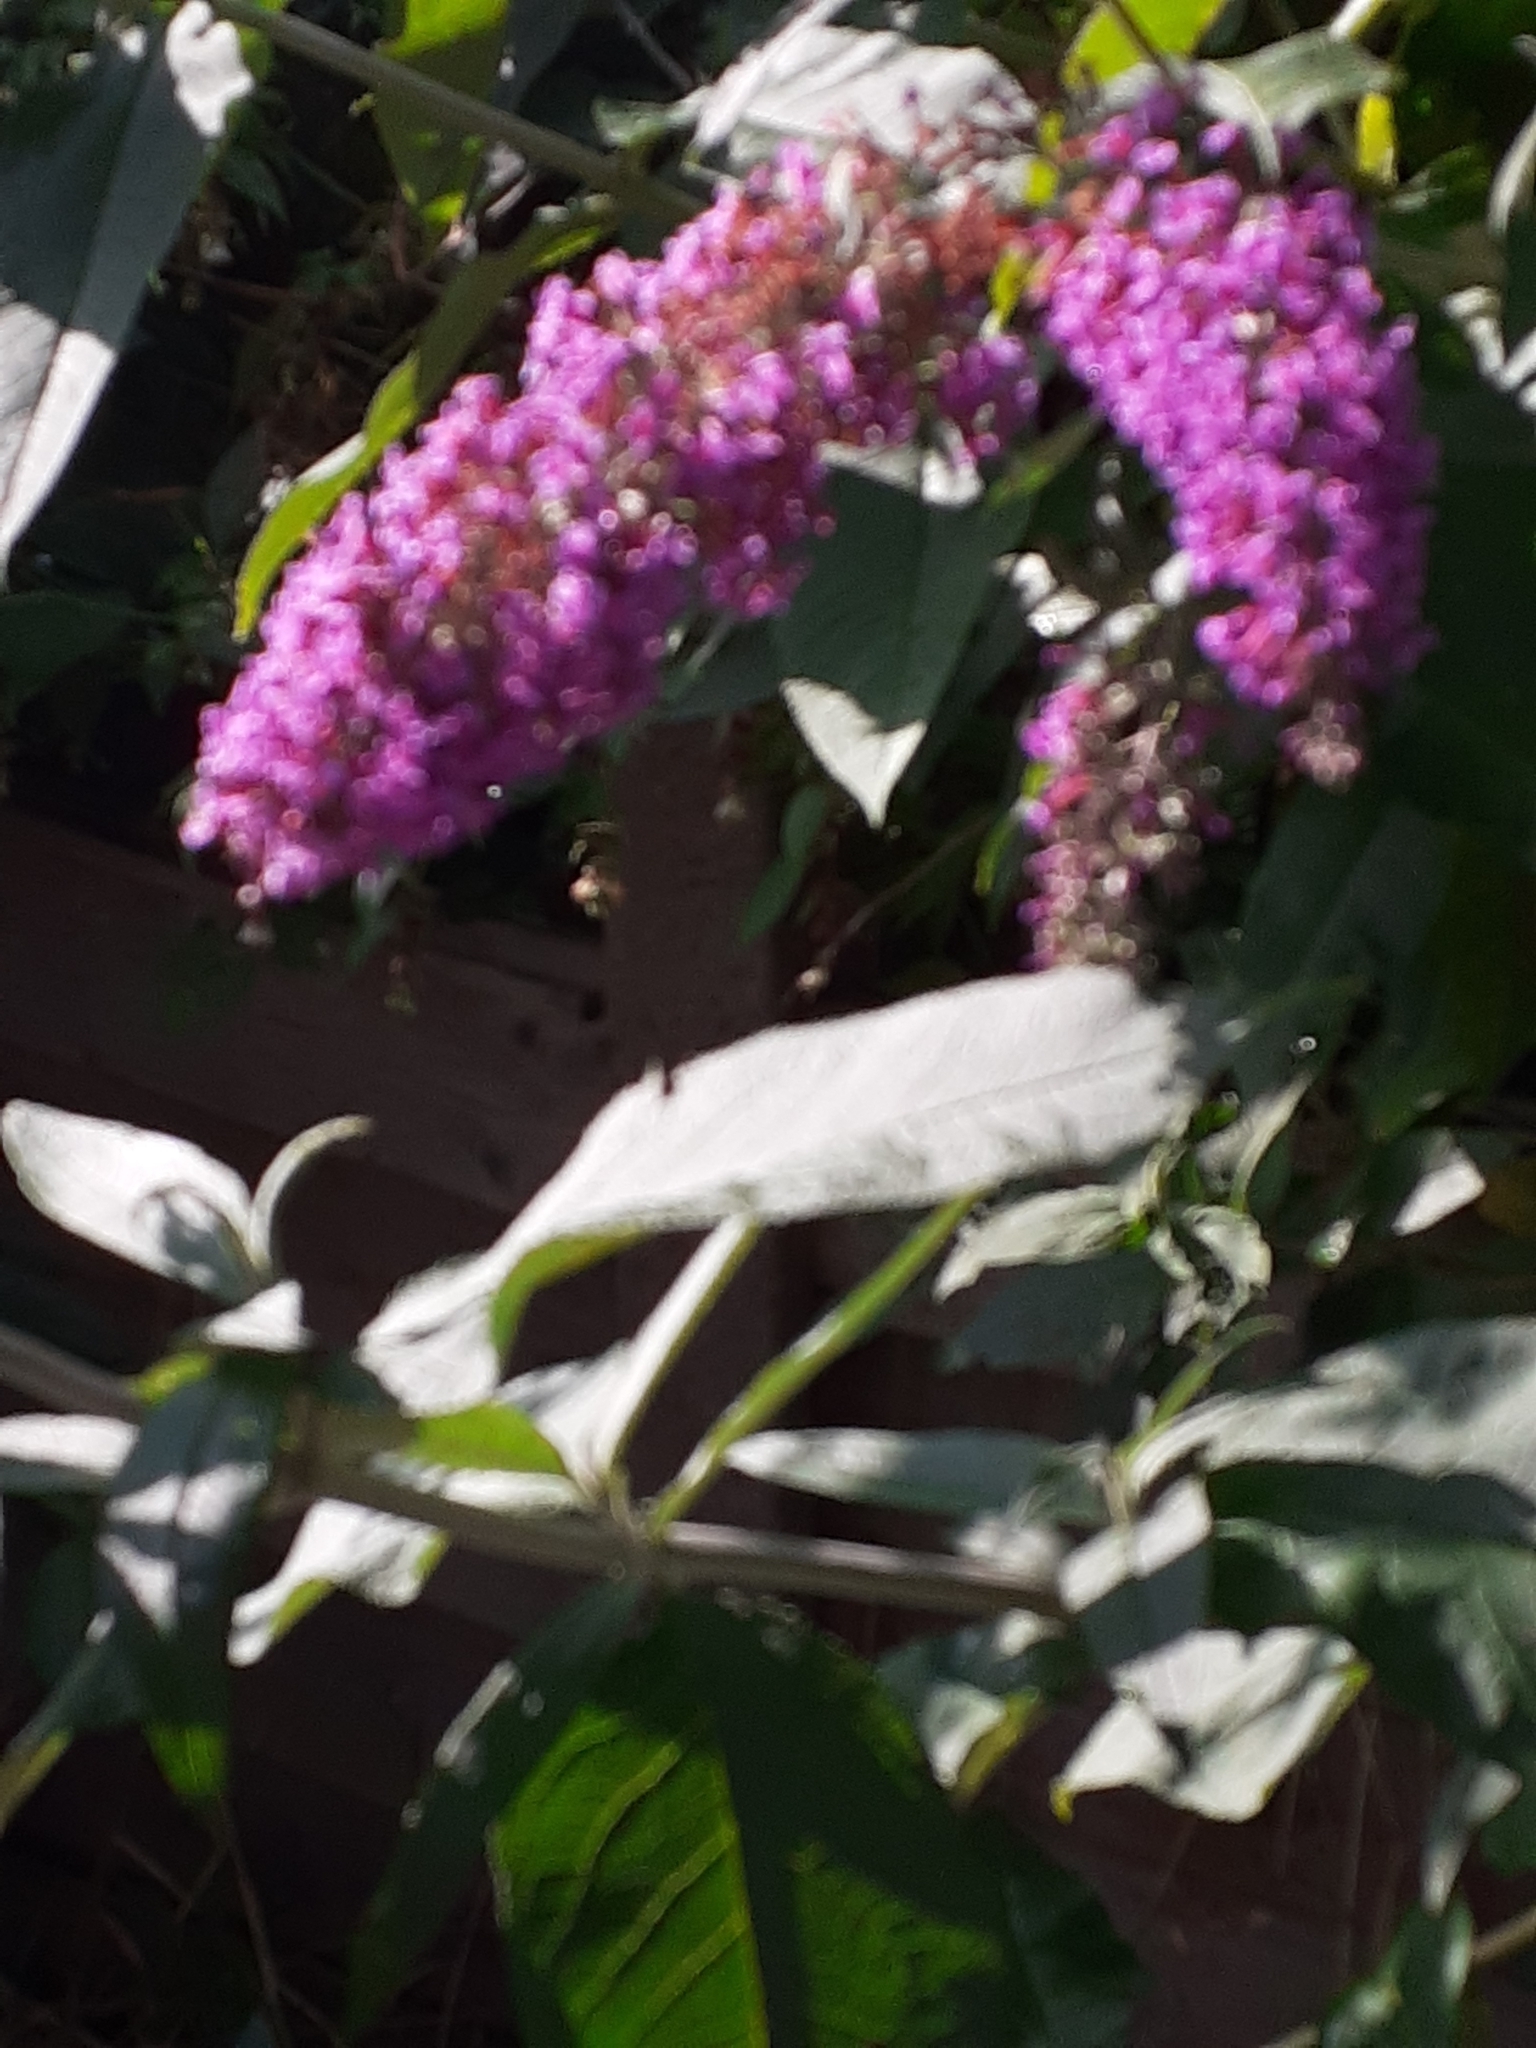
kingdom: Plantae
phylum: Tracheophyta
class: Magnoliopsida
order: Lamiales
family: Scrophulariaceae
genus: Buddleja
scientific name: Buddleja davidii
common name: Butterfly-bush
